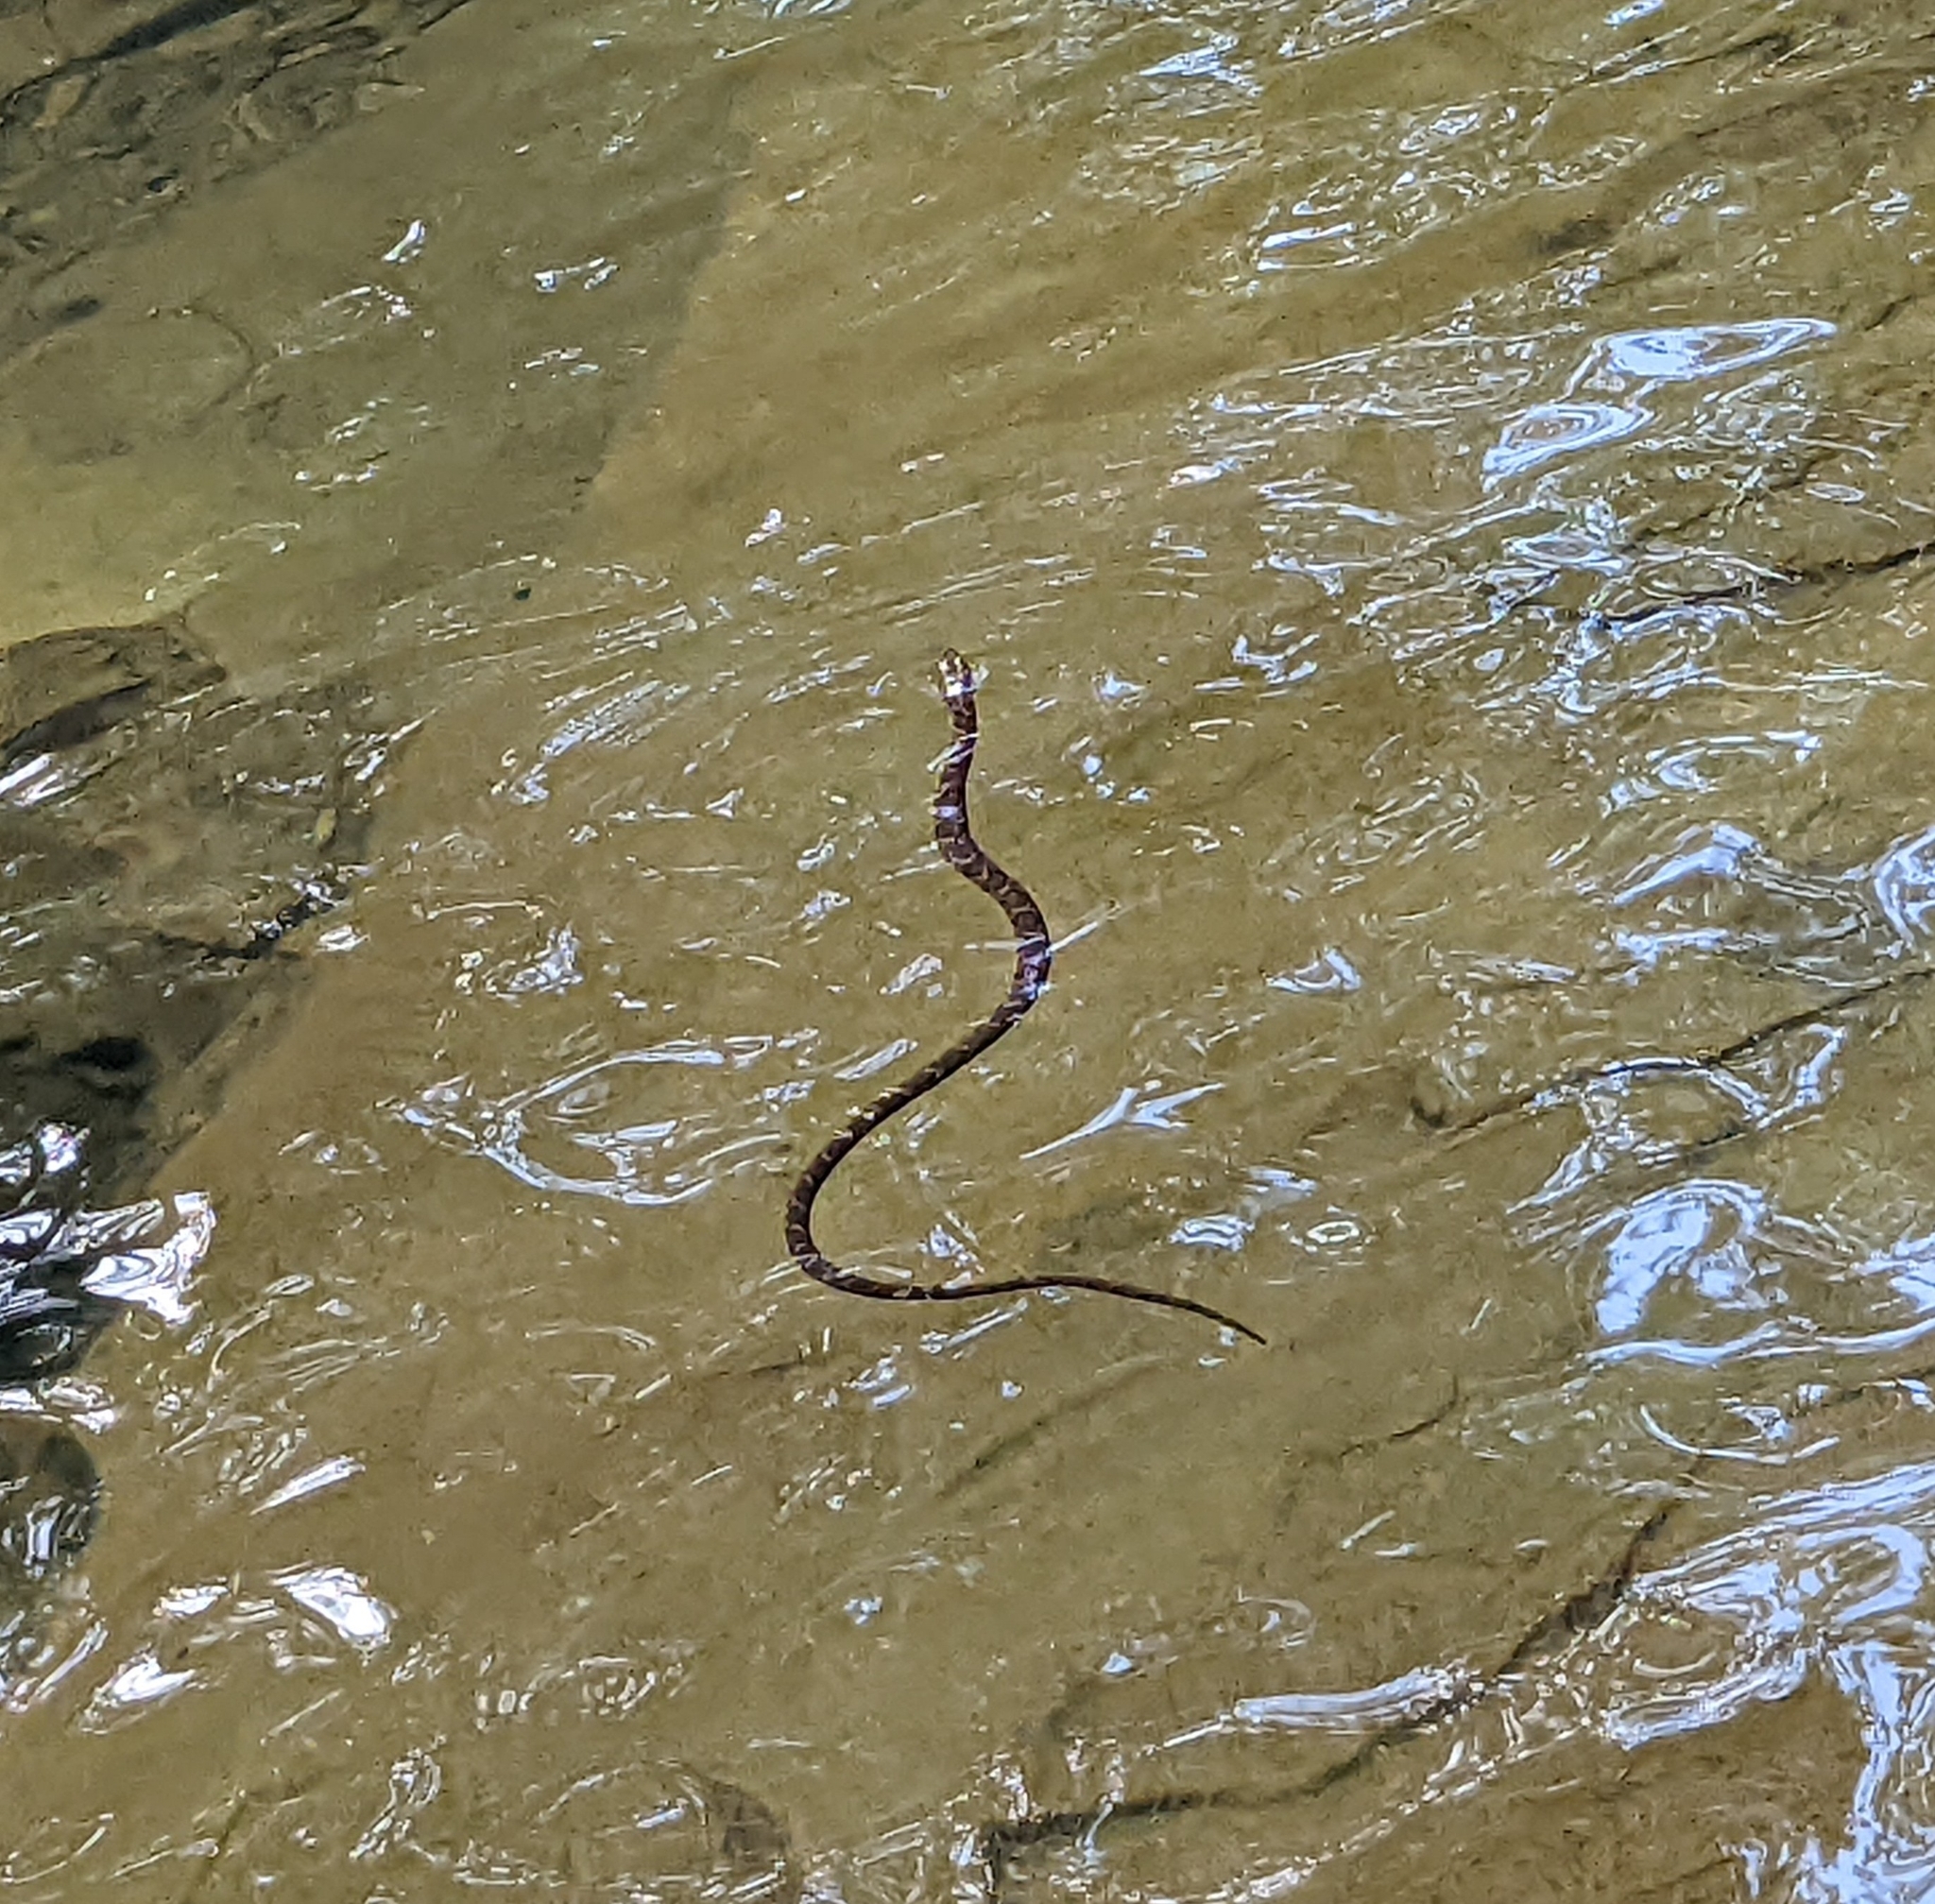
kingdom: Animalia
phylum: Chordata
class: Squamata
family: Colubridae
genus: Nerodia
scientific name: Nerodia sipedon
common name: Northern water snake
